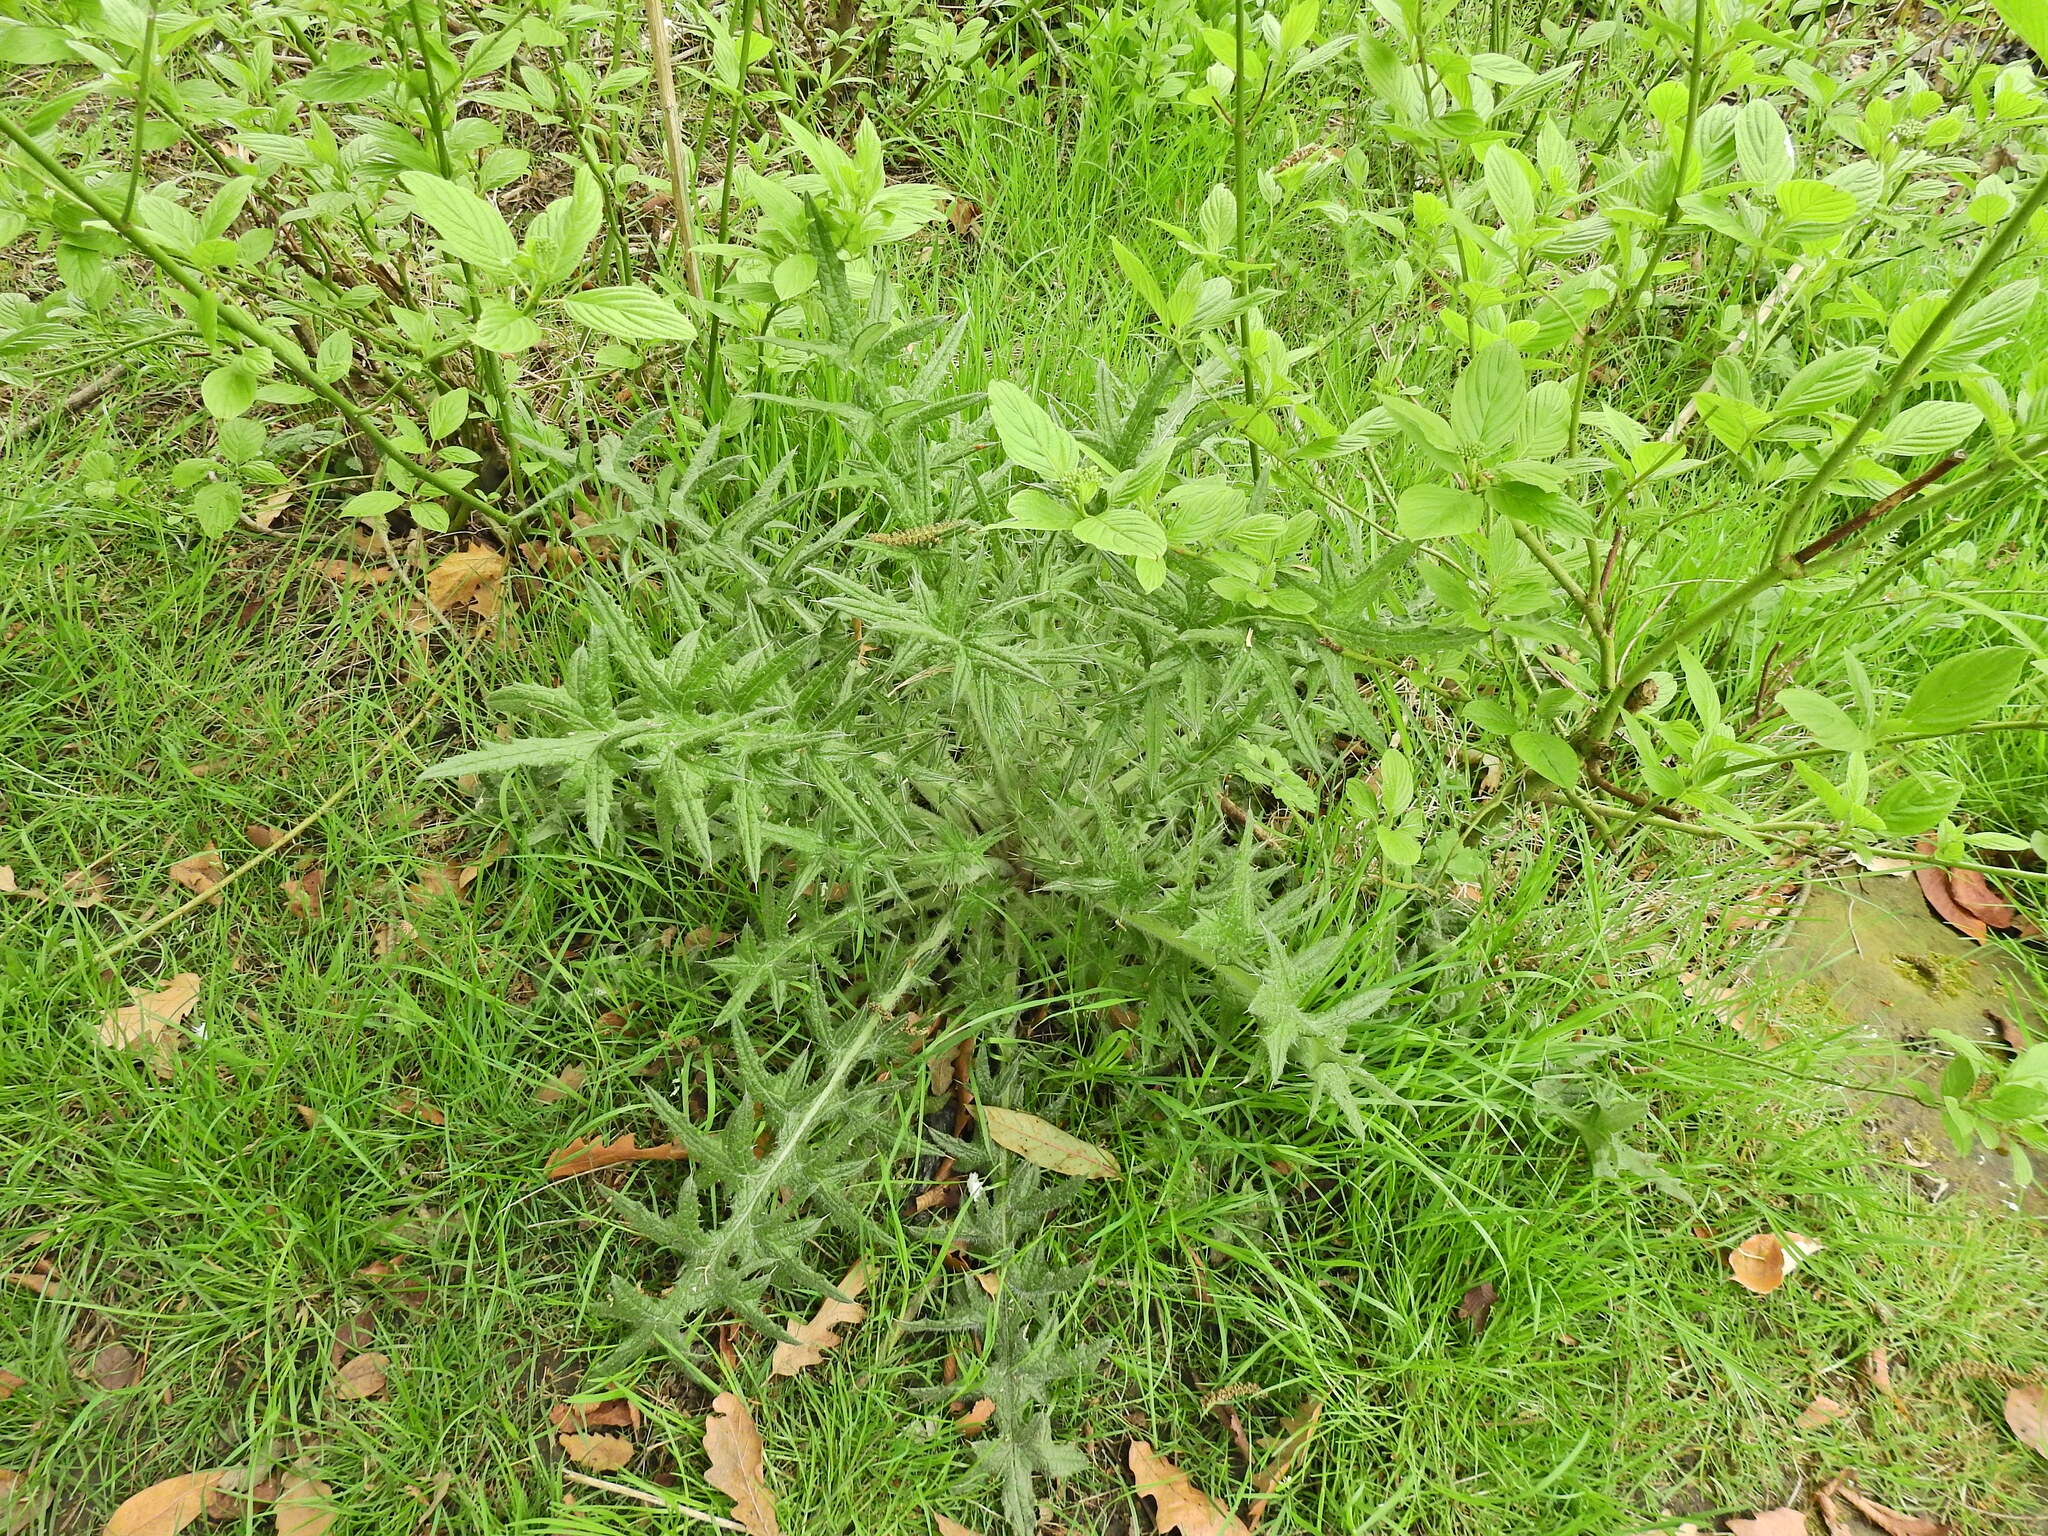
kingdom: Plantae
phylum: Tracheophyta
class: Magnoliopsida
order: Asterales
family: Asteraceae
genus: Cirsium
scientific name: Cirsium vulgare
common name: Bull thistle
